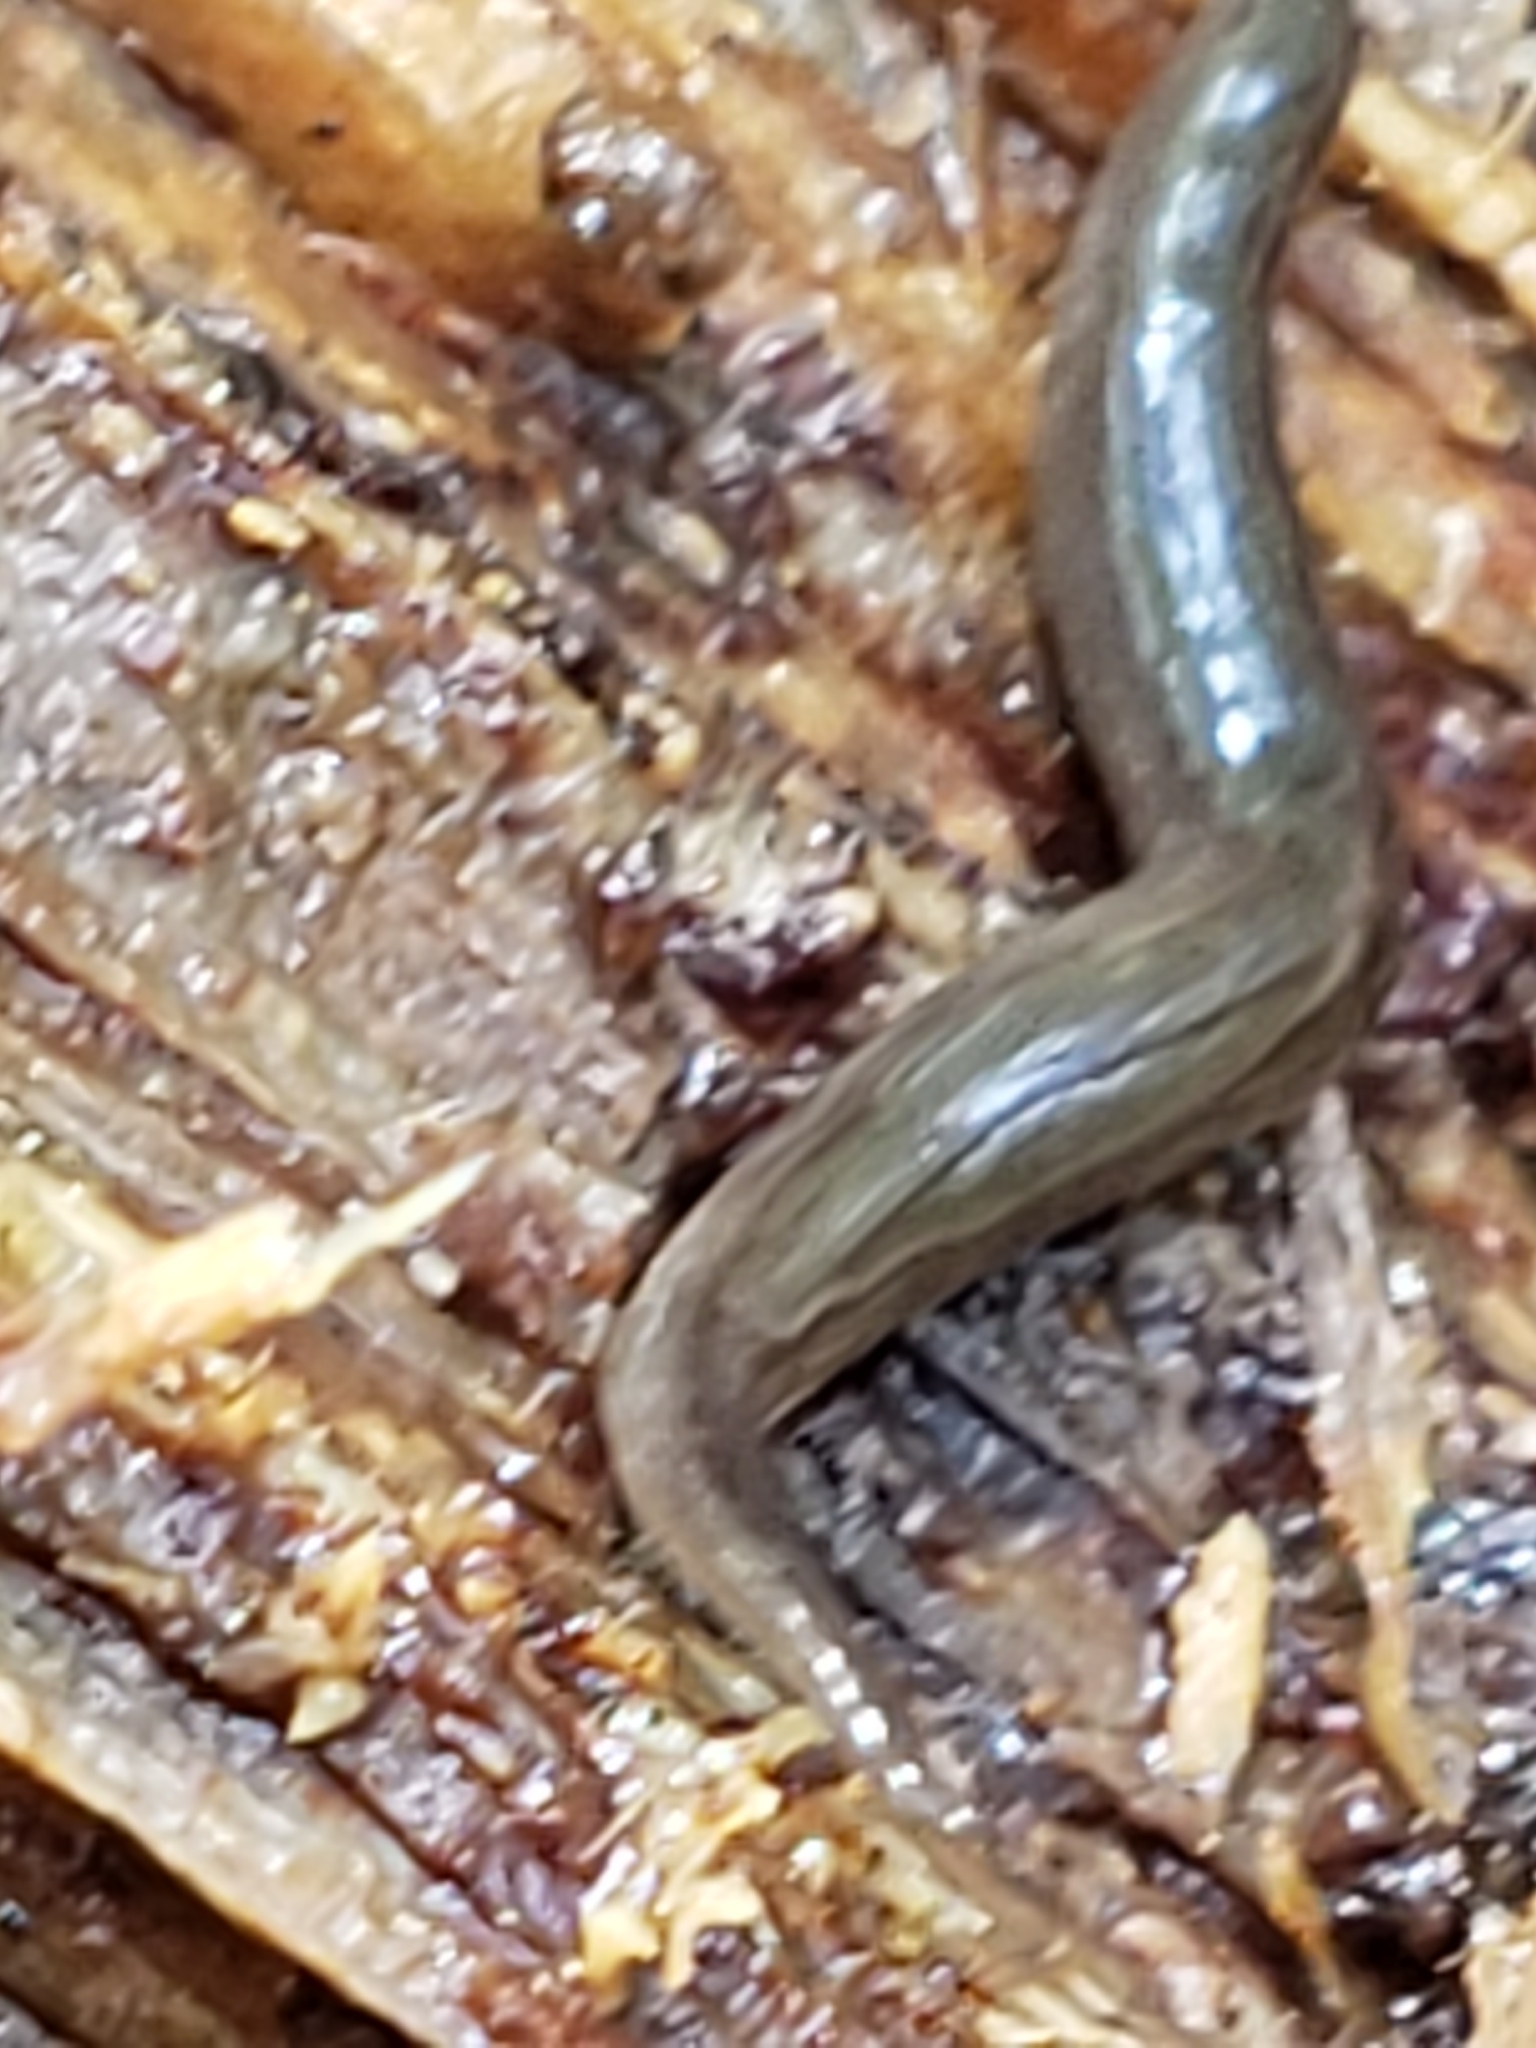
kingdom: Animalia
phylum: Platyhelminthes
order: Tricladida
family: Geoplanidae
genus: Microplana
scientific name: Microplana terrestris
